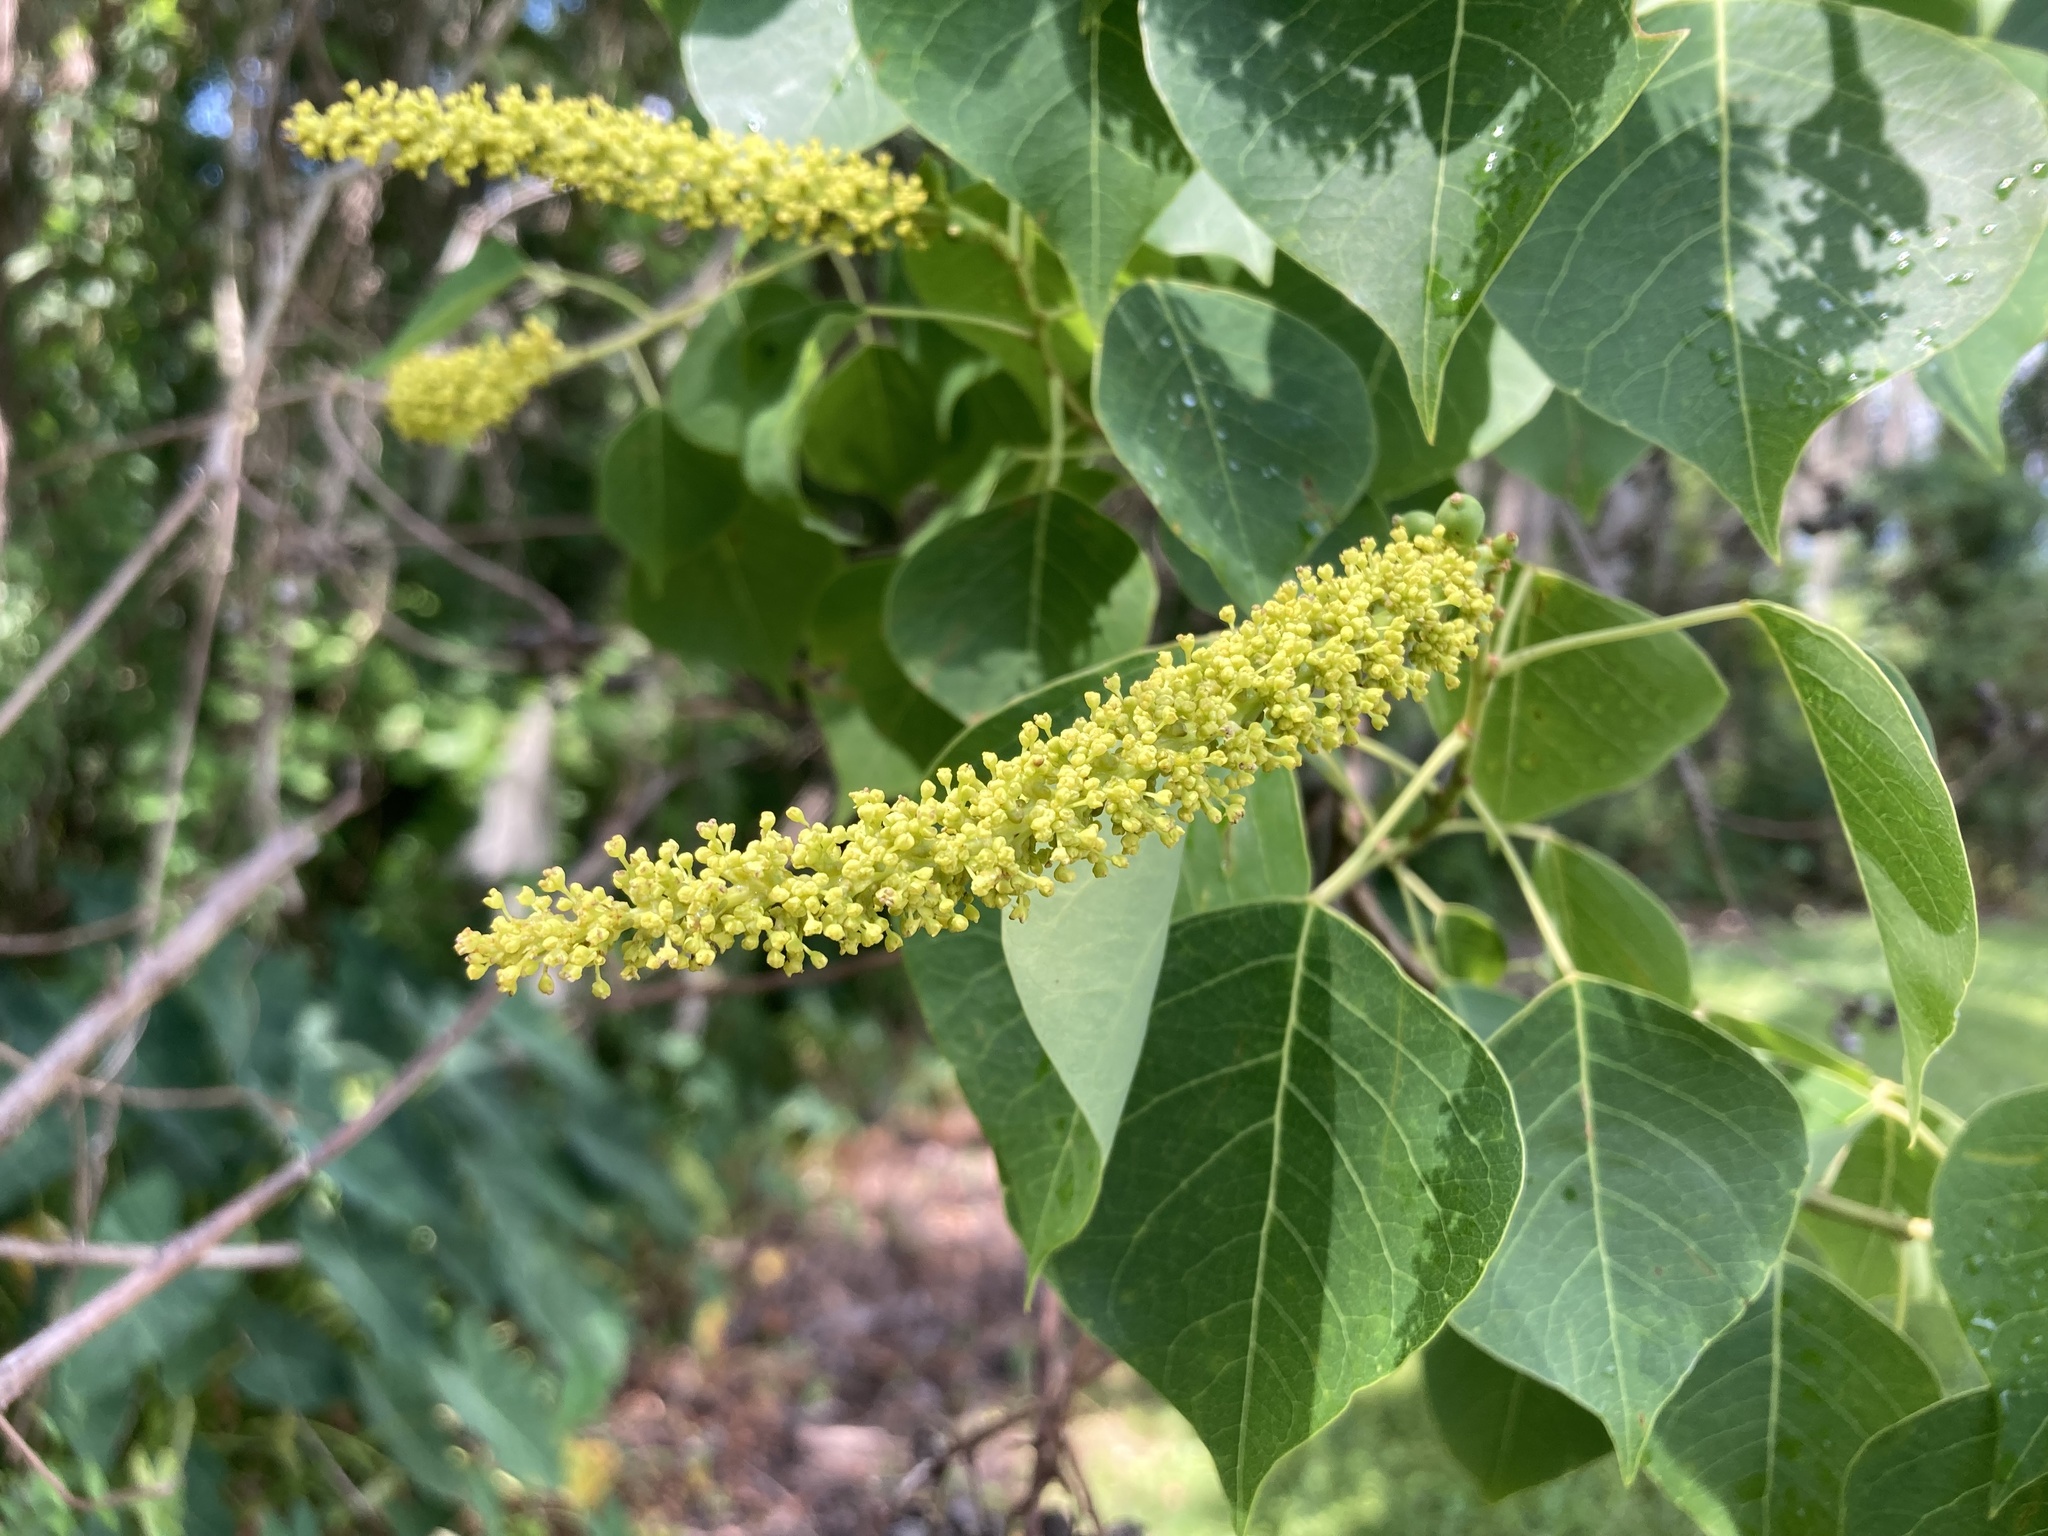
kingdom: Plantae
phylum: Tracheophyta
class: Magnoliopsida
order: Malpighiales
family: Euphorbiaceae
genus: Triadica
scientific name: Triadica sebifera
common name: Chinese tallow
